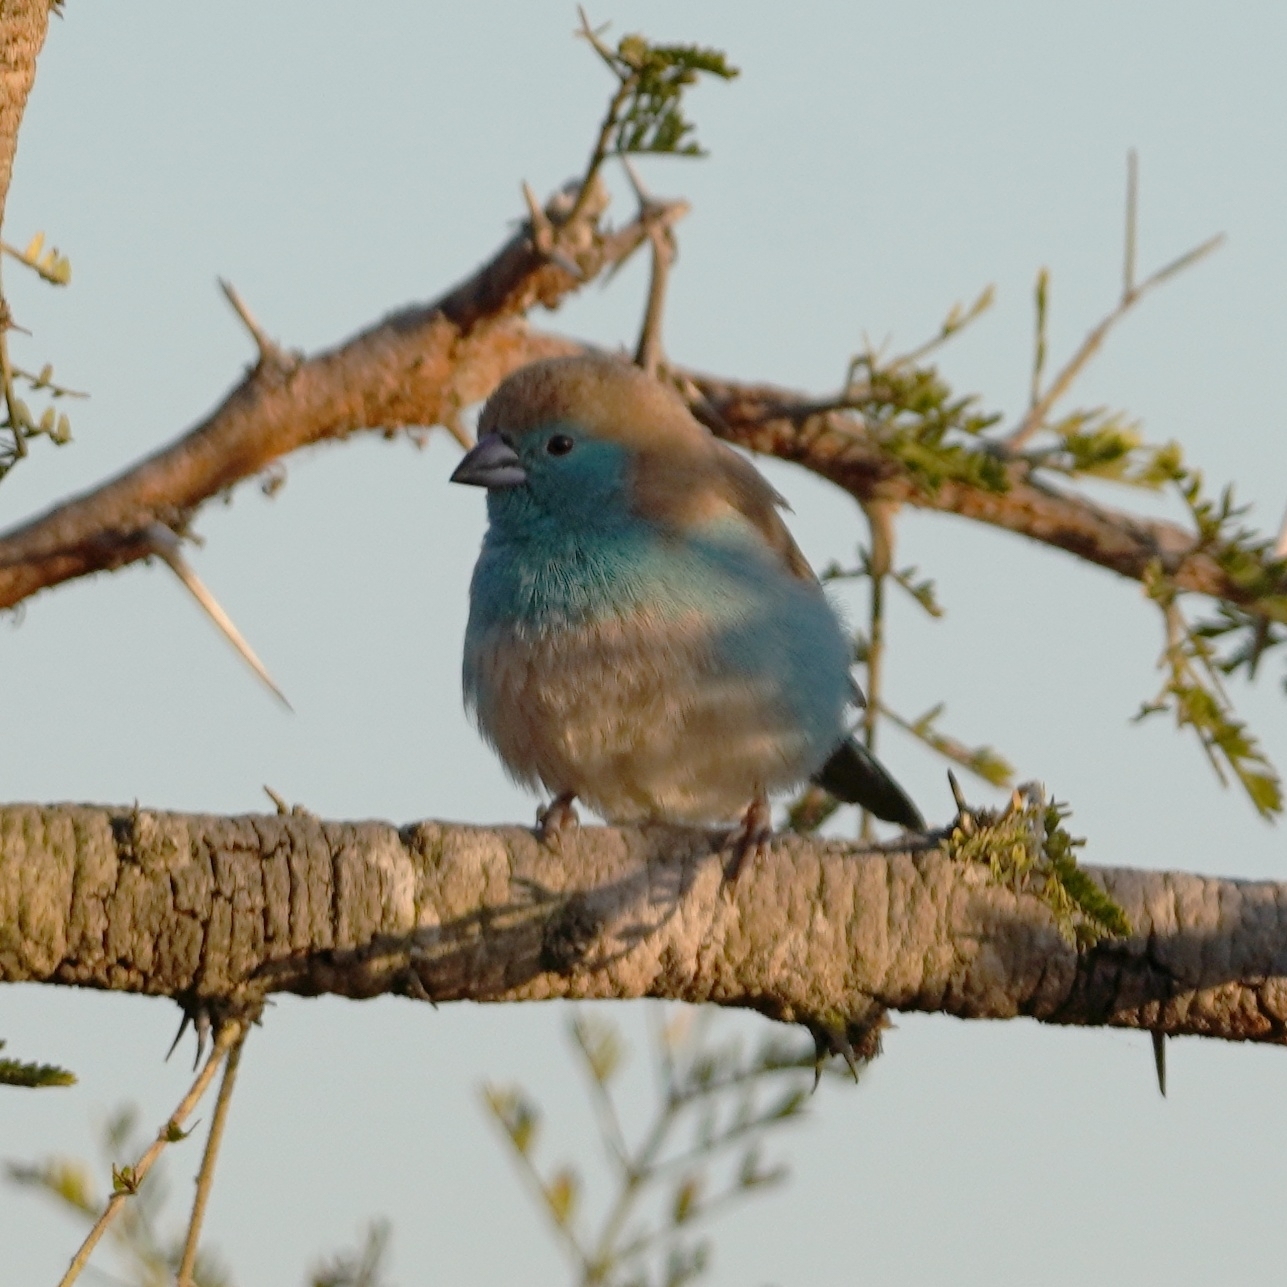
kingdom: Animalia
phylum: Chordata
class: Aves
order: Passeriformes
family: Estrildidae
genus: Uraeginthus
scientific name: Uraeginthus angolensis
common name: Blue waxbill
